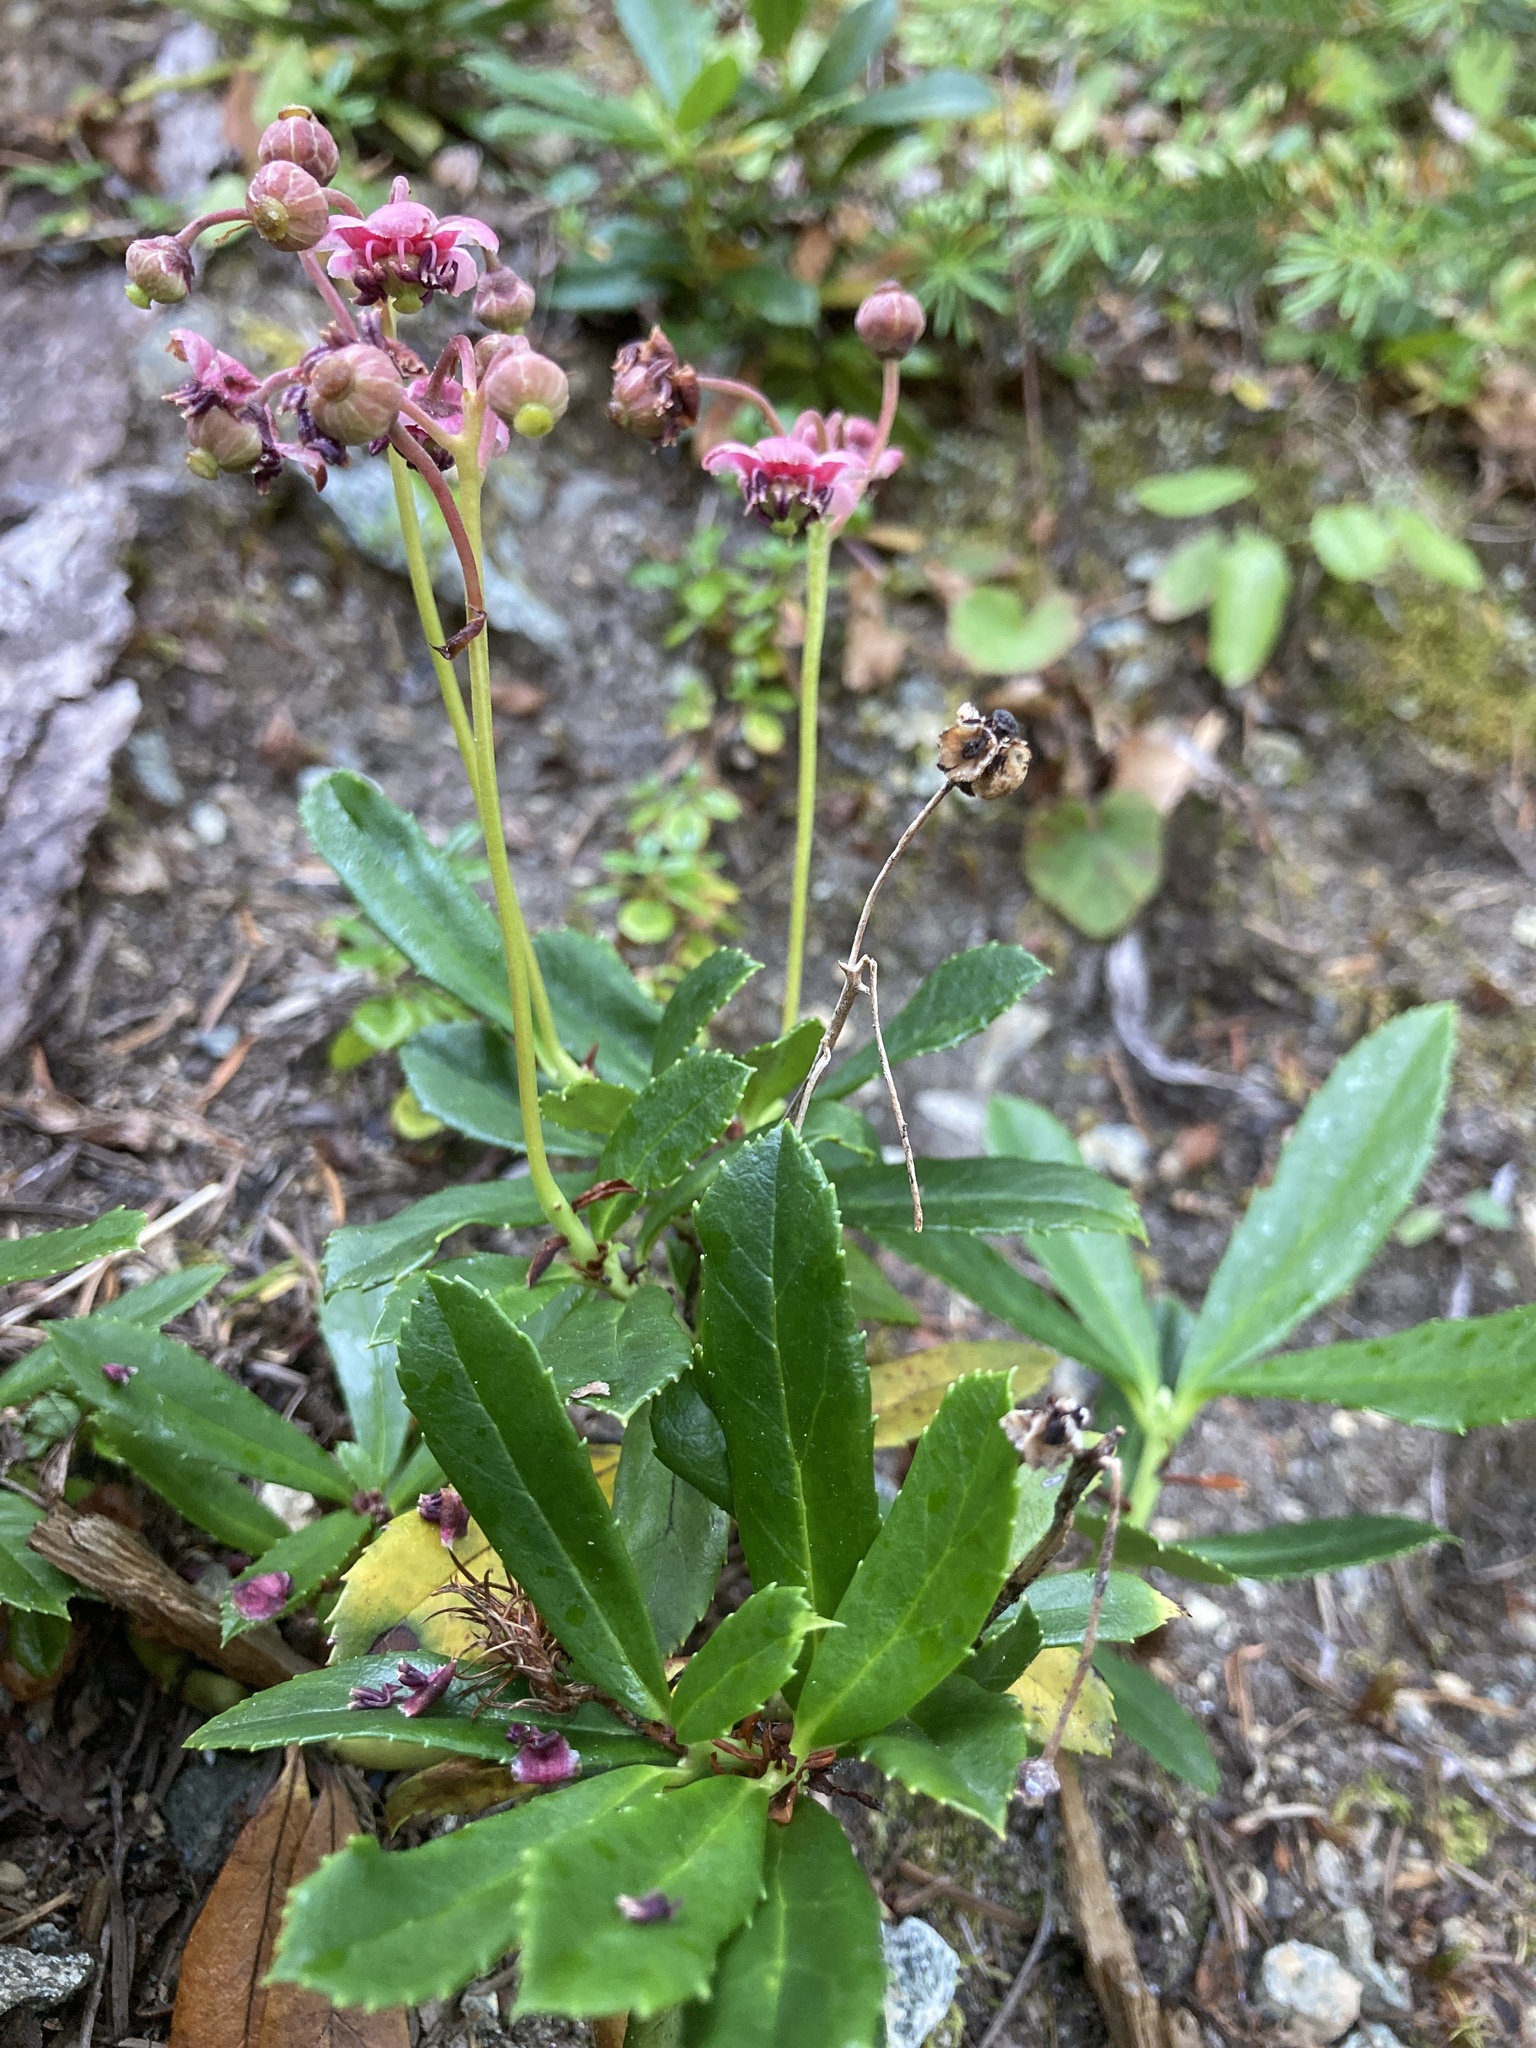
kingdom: Plantae
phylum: Tracheophyta
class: Magnoliopsida
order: Ericales
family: Ericaceae
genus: Chimaphila
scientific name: Chimaphila umbellata
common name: Pipsissewa
